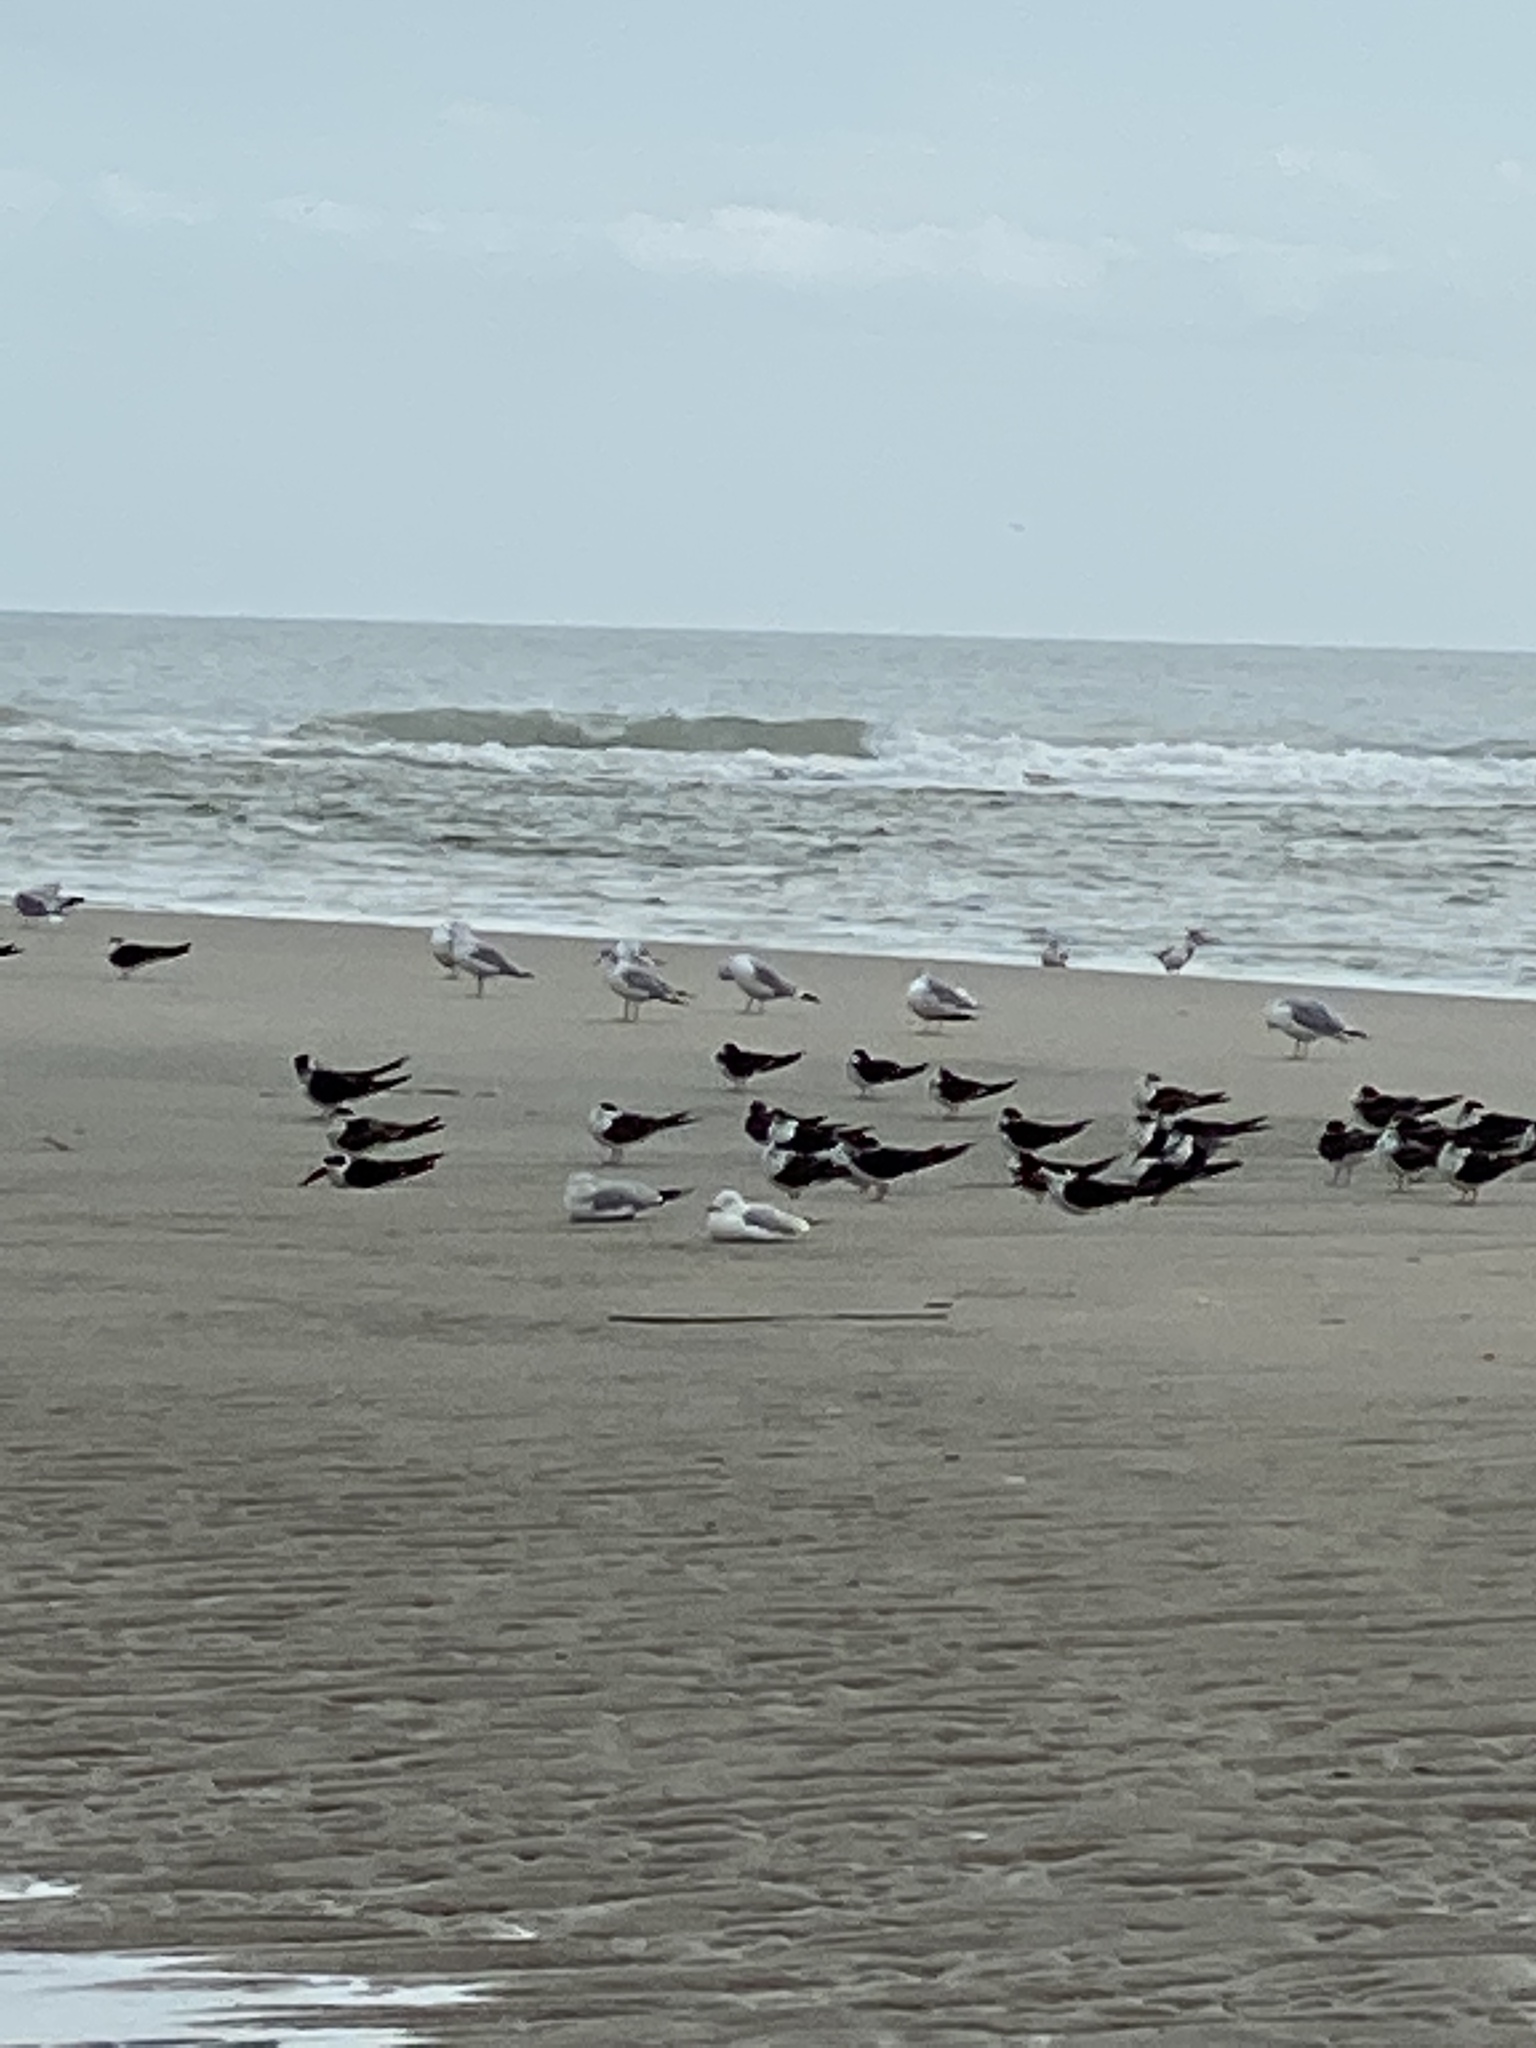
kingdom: Animalia
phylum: Chordata
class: Aves
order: Charadriiformes
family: Laridae
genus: Rynchops
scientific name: Rynchops niger
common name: Black skimmer
